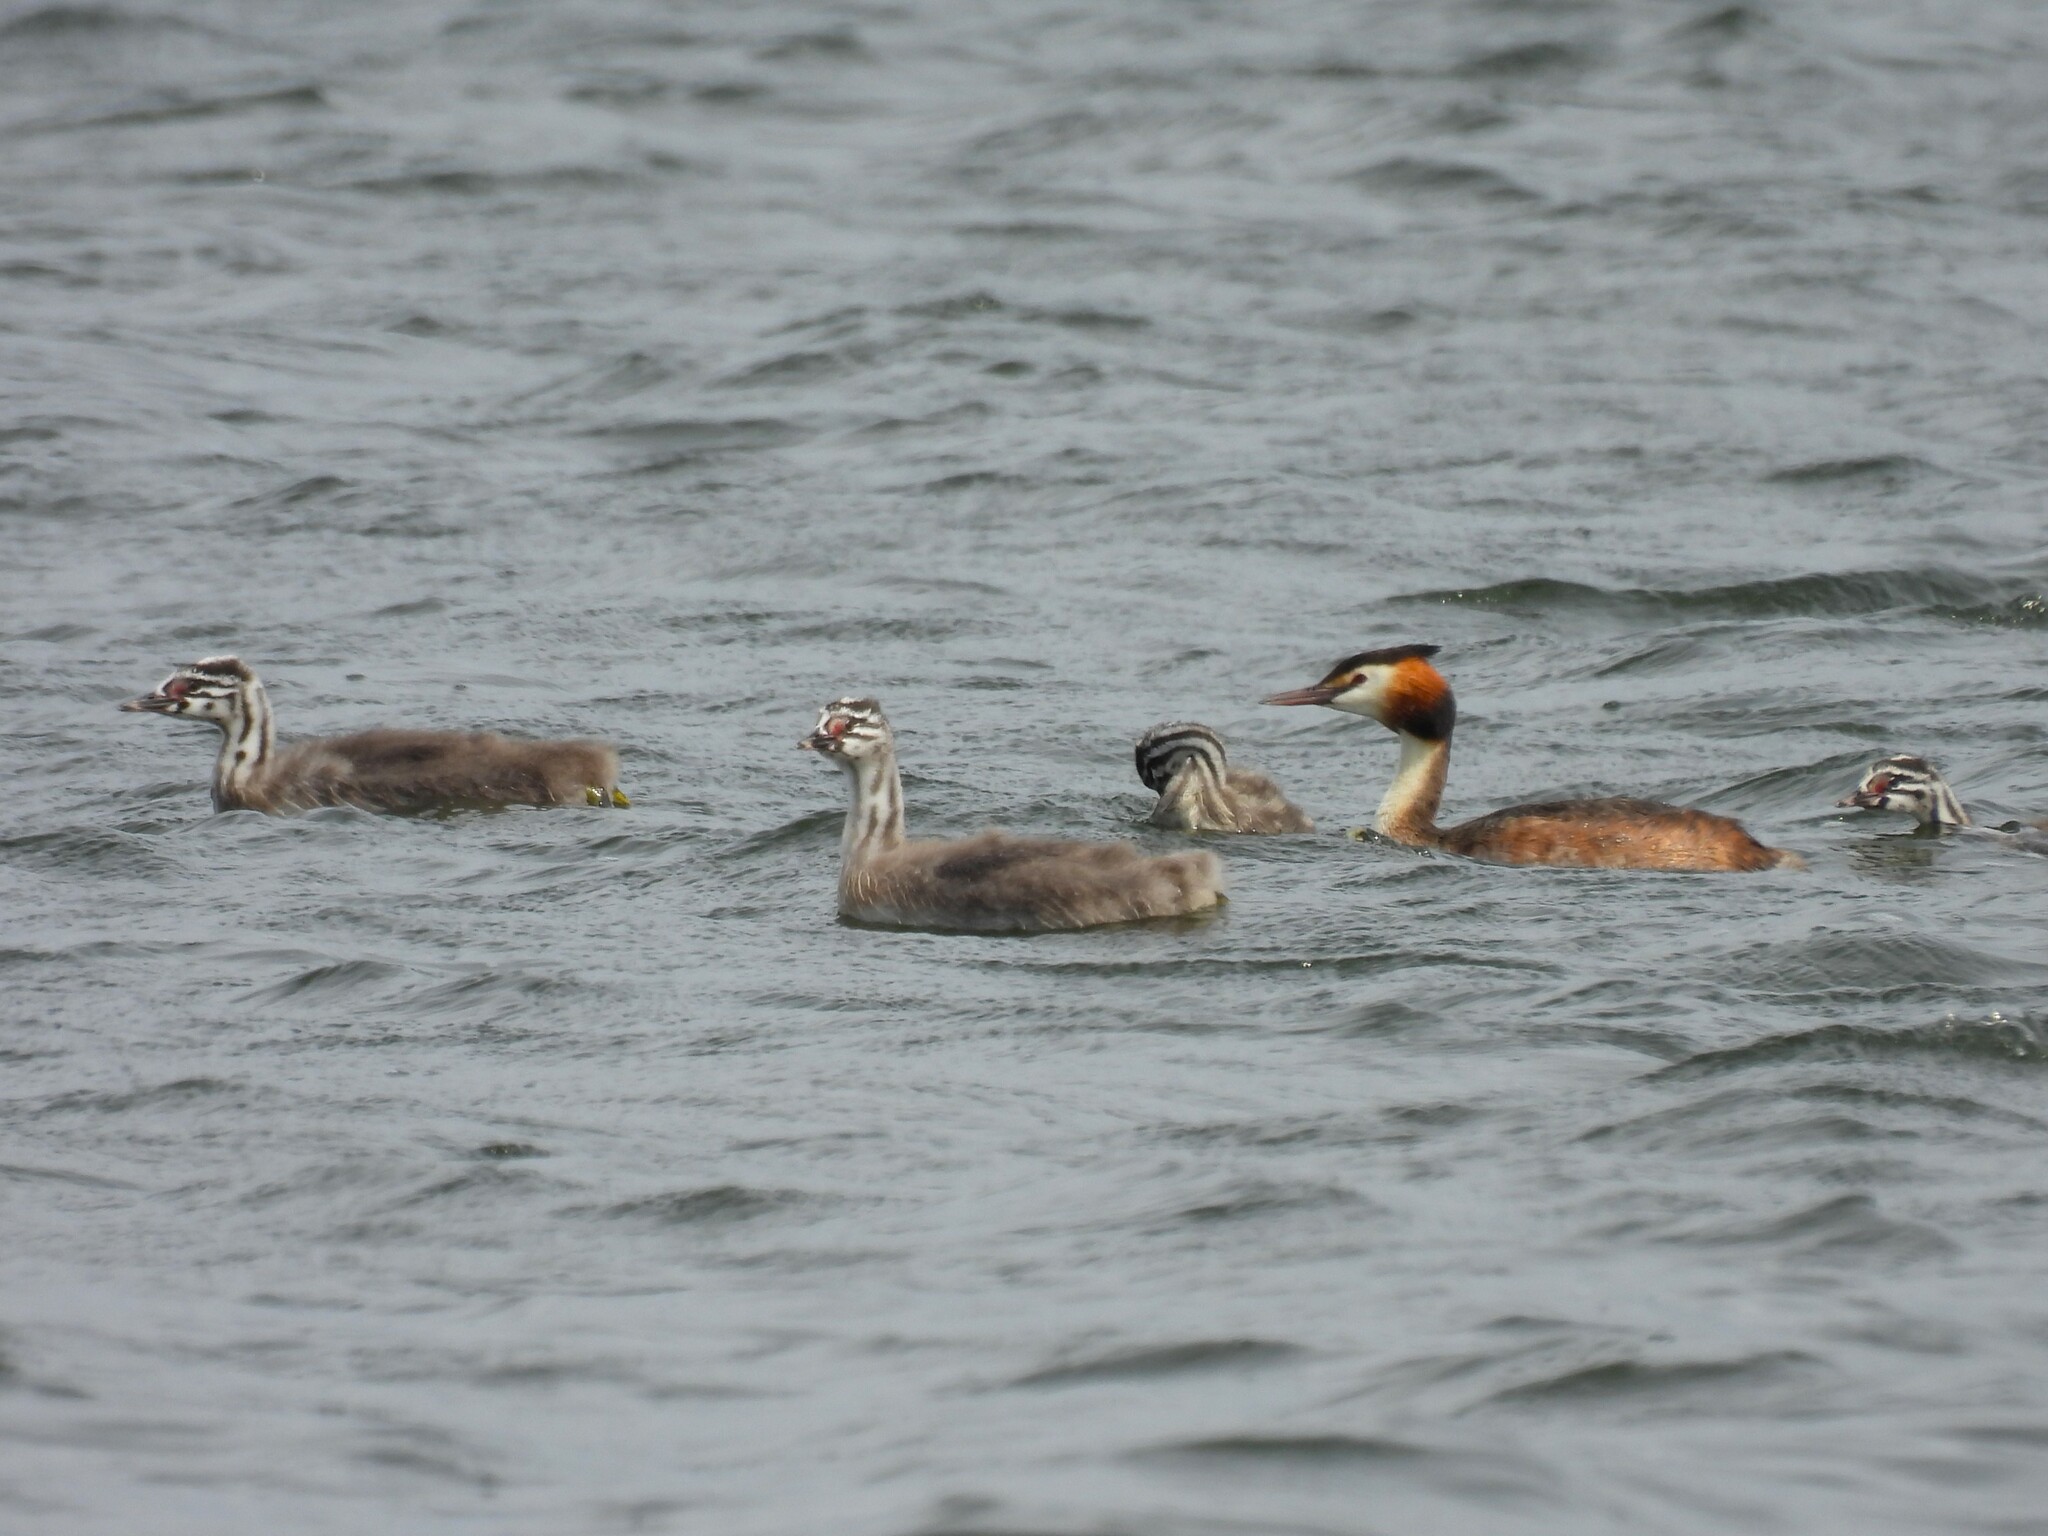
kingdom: Animalia
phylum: Chordata
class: Aves
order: Podicipediformes
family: Podicipedidae
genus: Podiceps
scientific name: Podiceps cristatus
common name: Great crested grebe
